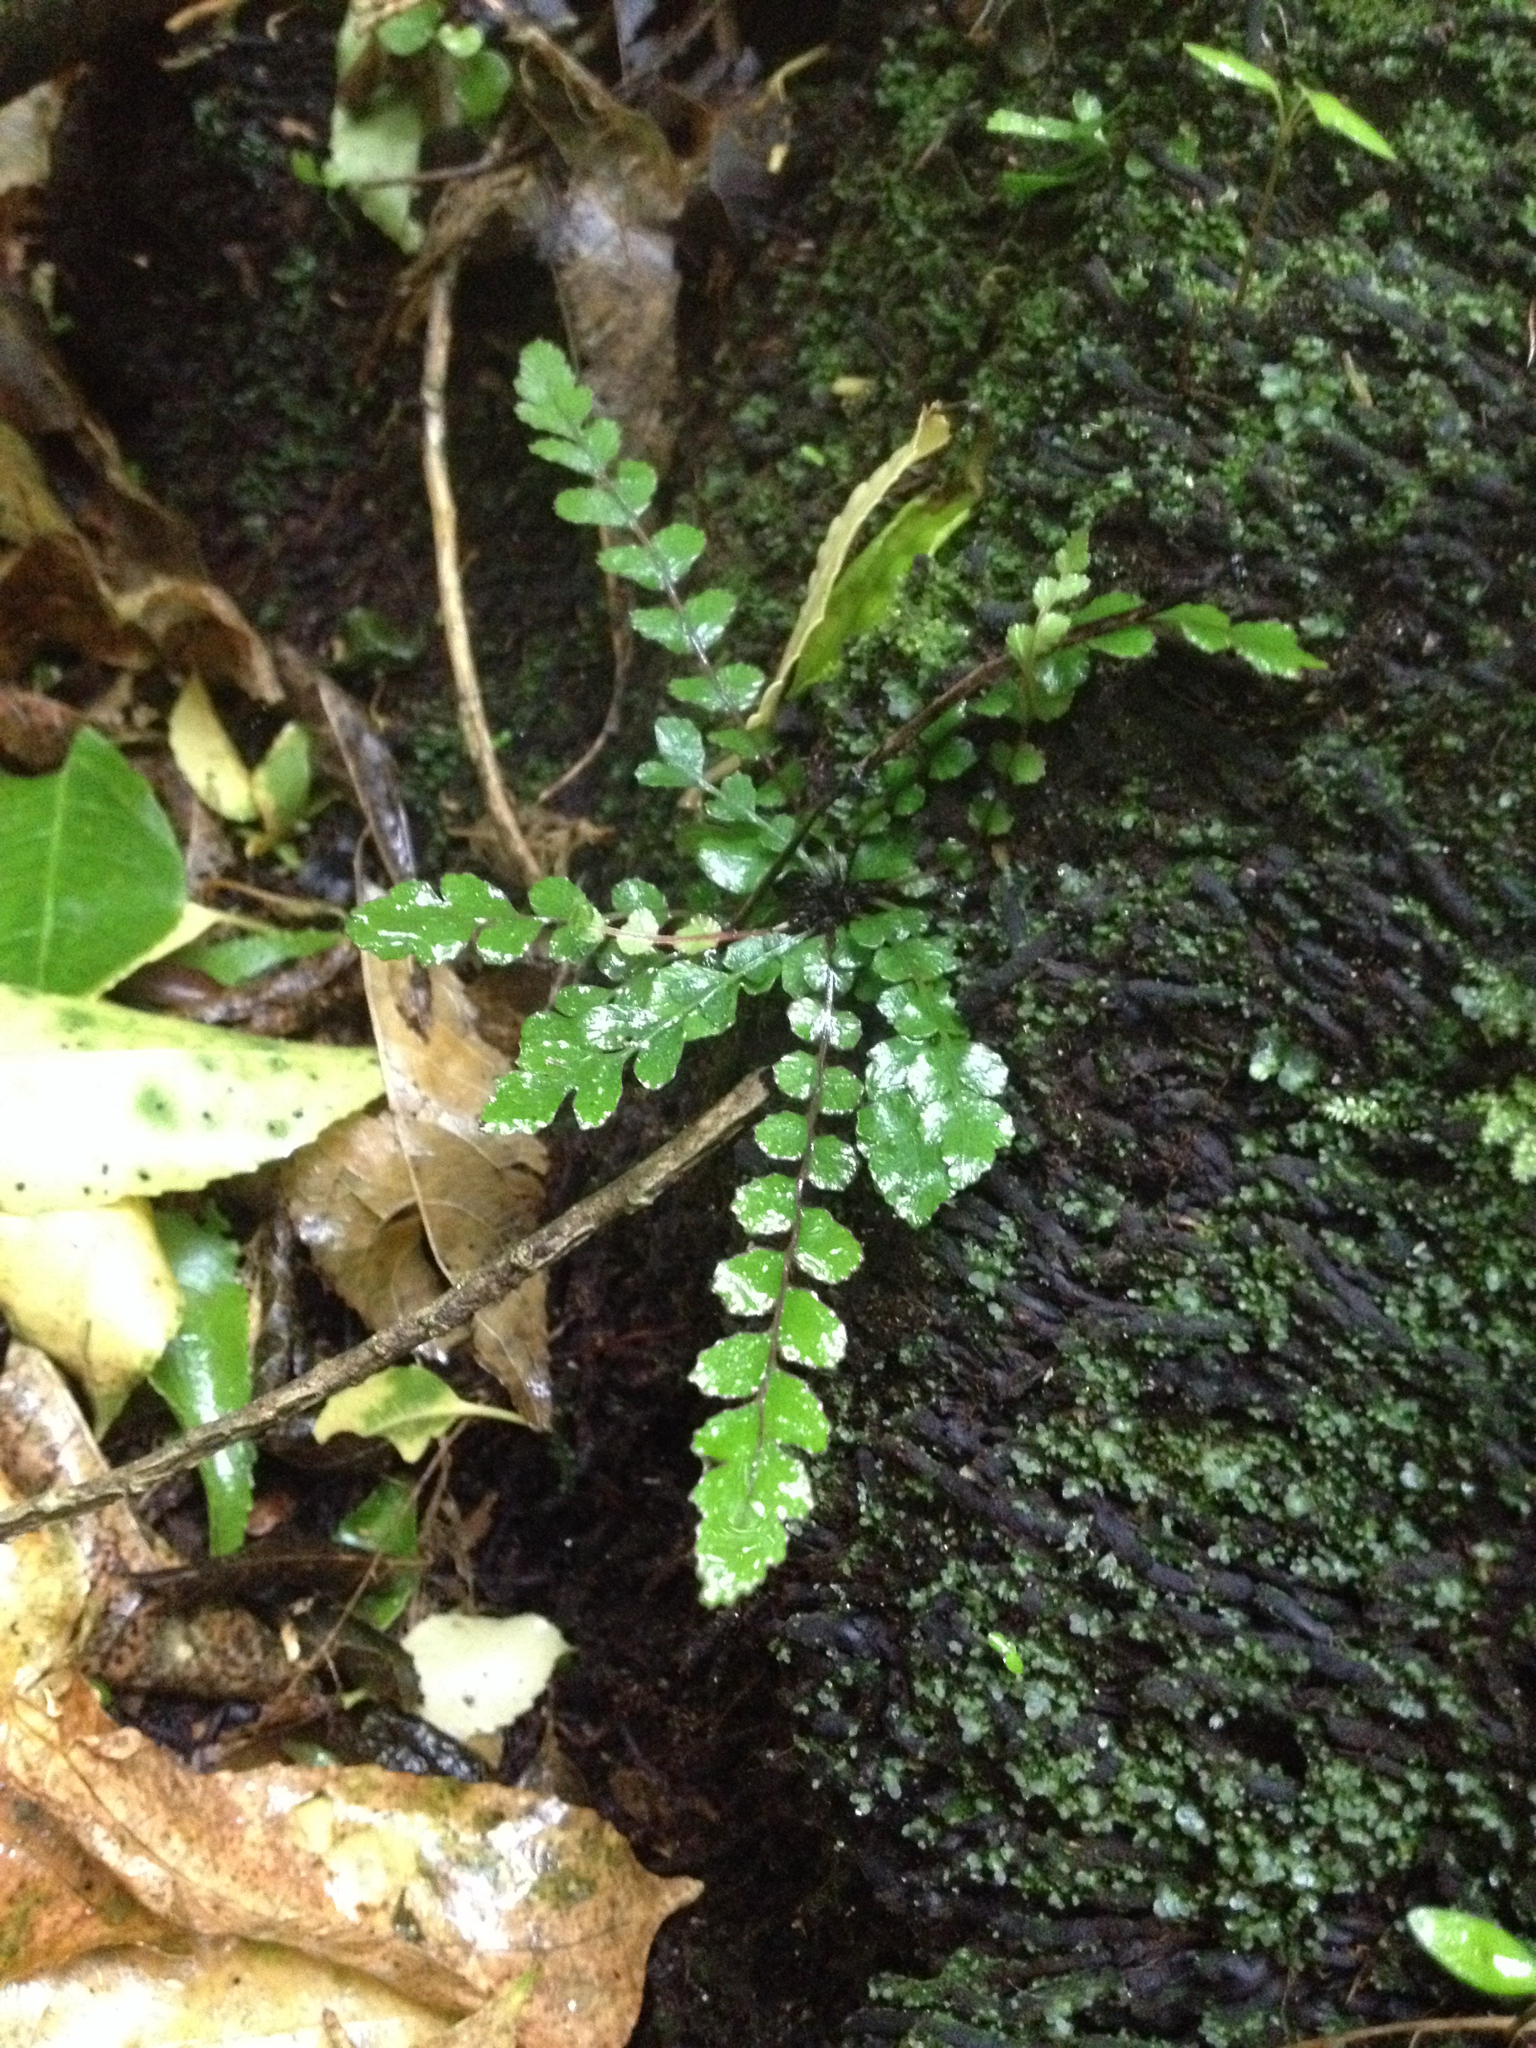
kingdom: Plantae
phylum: Tracheophyta
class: Polypodiopsida
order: Polypodiales
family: Blechnaceae
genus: Austroblechnum
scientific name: Austroblechnum membranaceum
